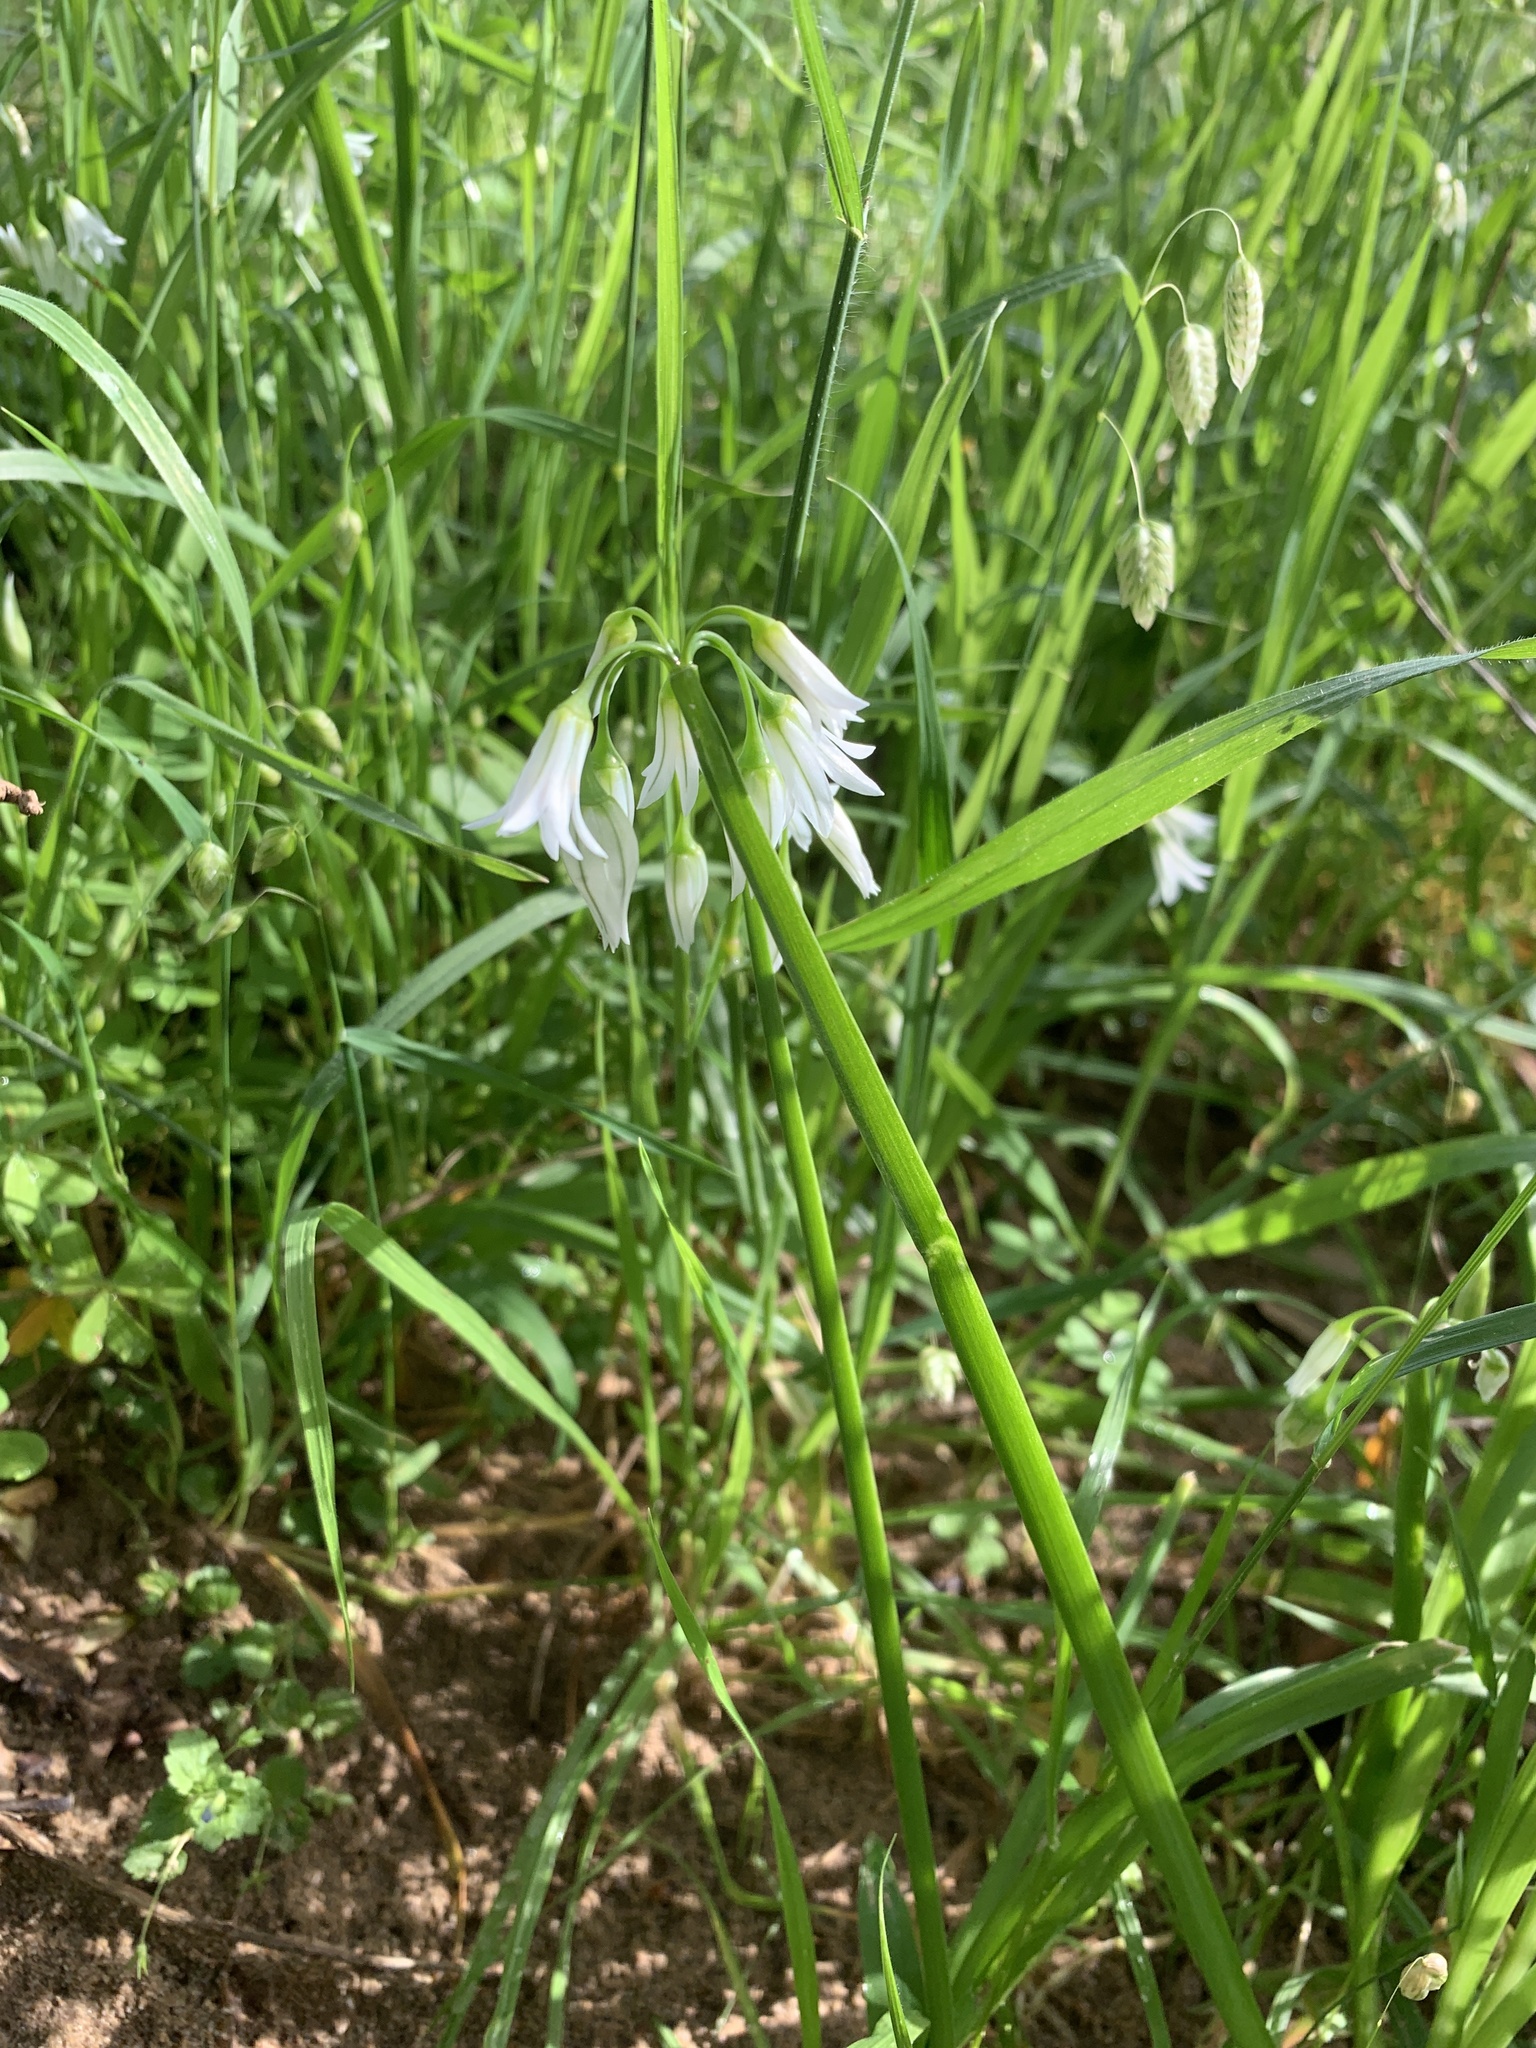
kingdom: Plantae
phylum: Tracheophyta
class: Liliopsida
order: Asparagales
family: Amaryllidaceae
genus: Allium
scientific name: Allium triquetrum
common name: Three-cornered garlic
